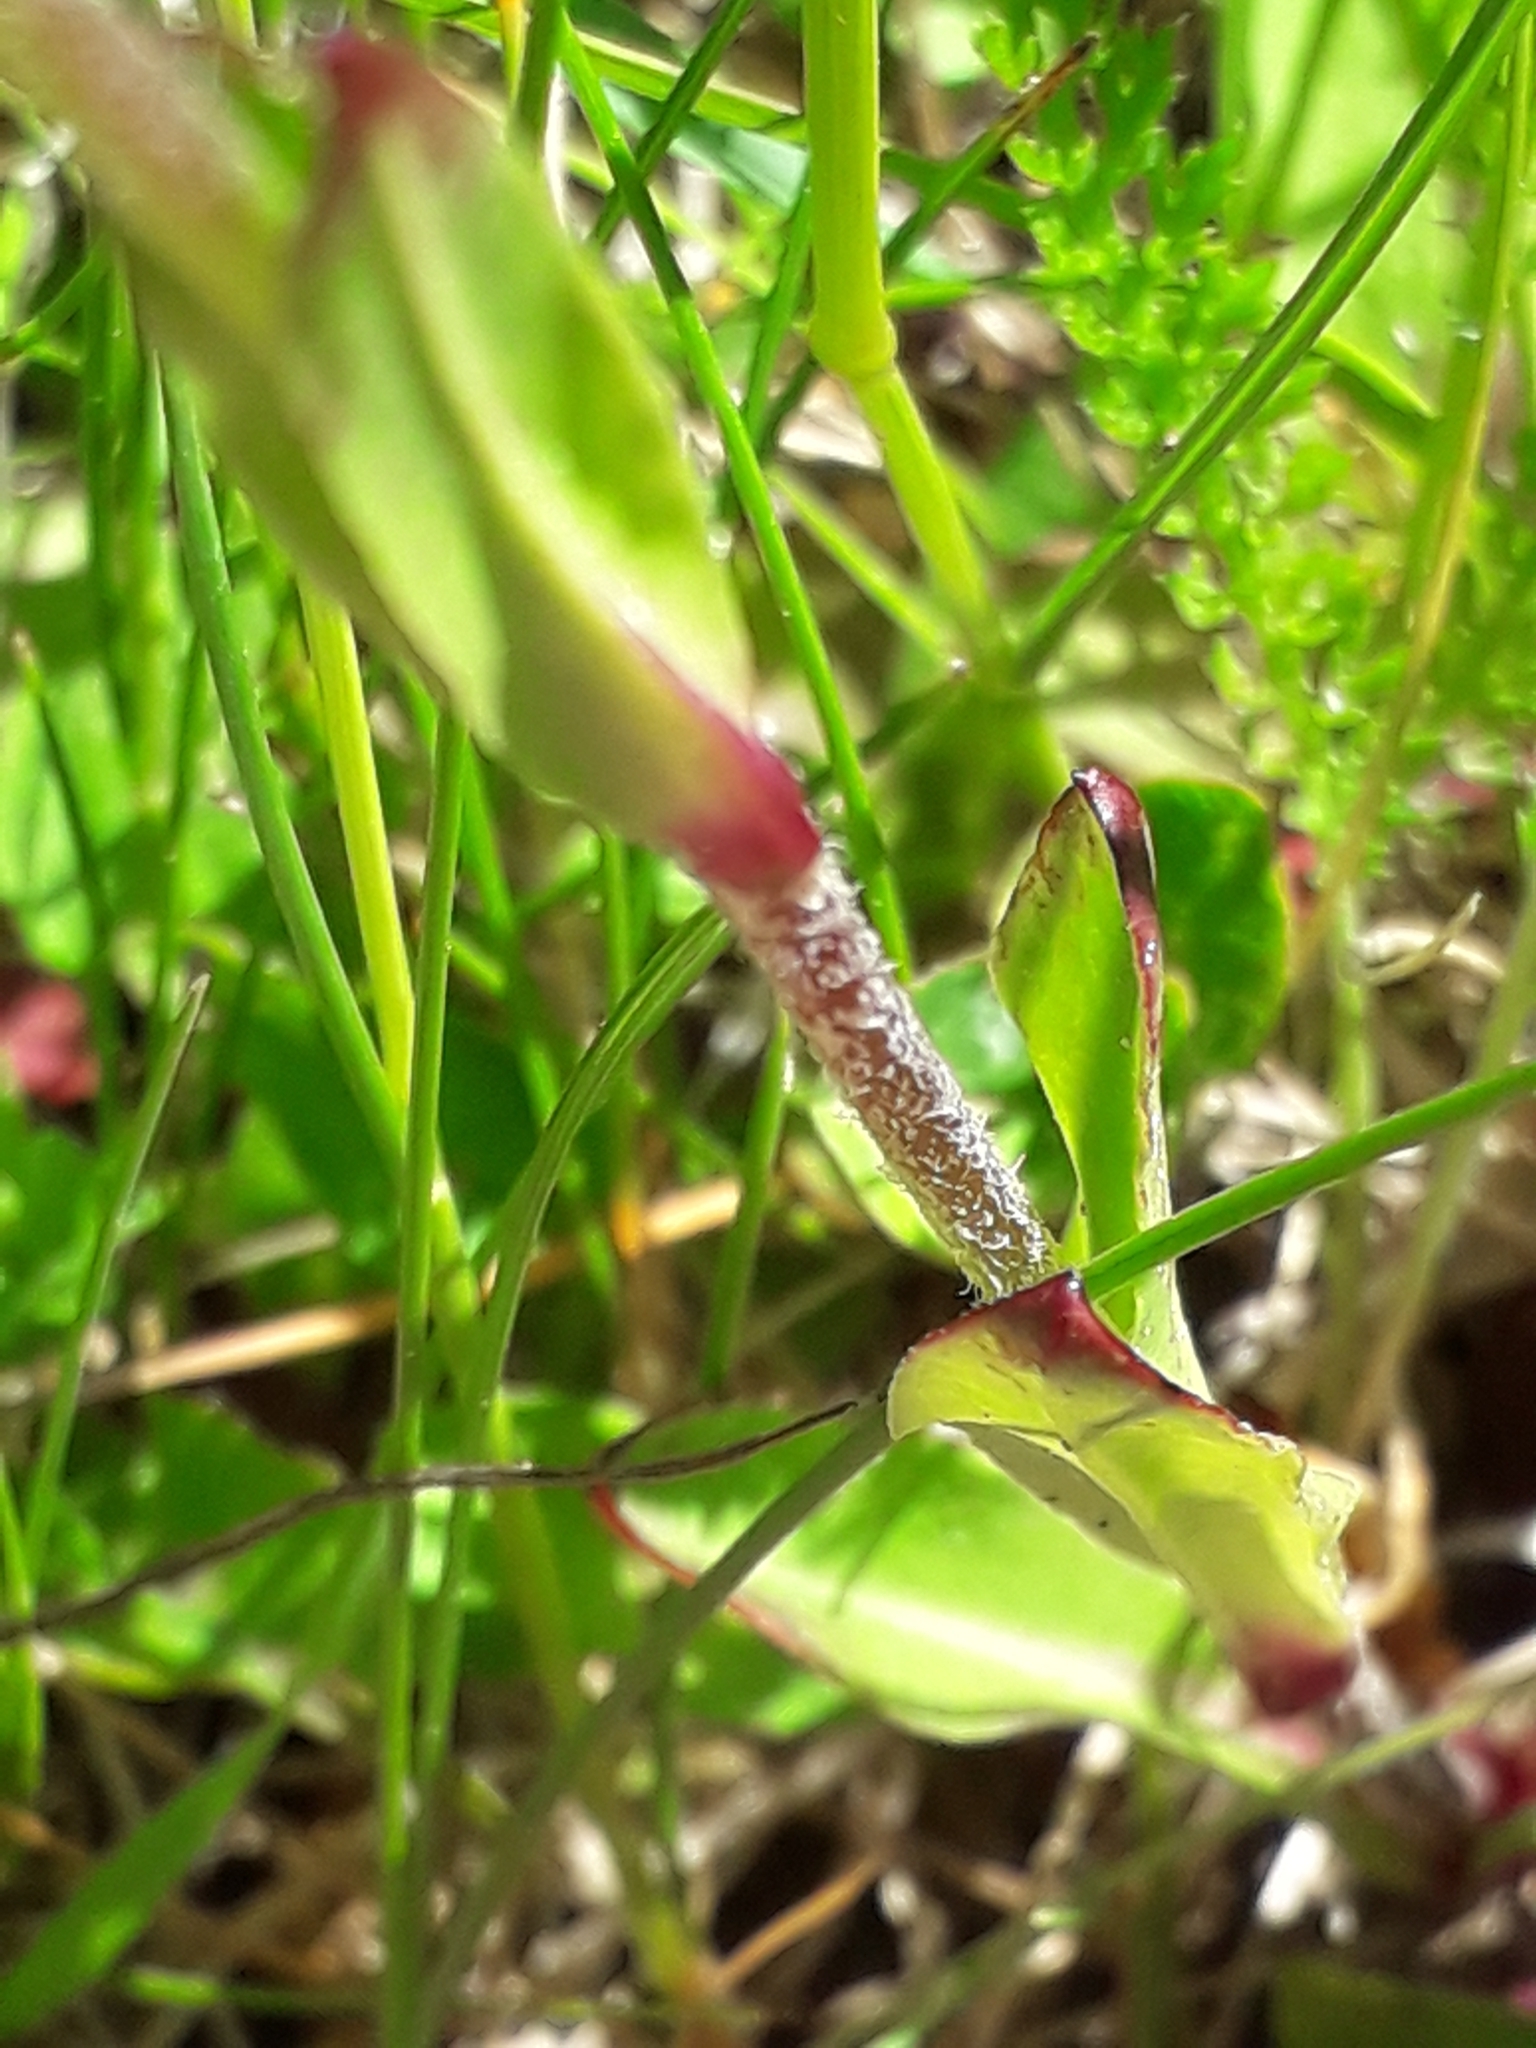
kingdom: Plantae
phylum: Tracheophyta
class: Magnoliopsida
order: Caryophyllales
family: Caryophyllaceae
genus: Silene
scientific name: Silene flos-cuculi
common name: Ragged-robin
